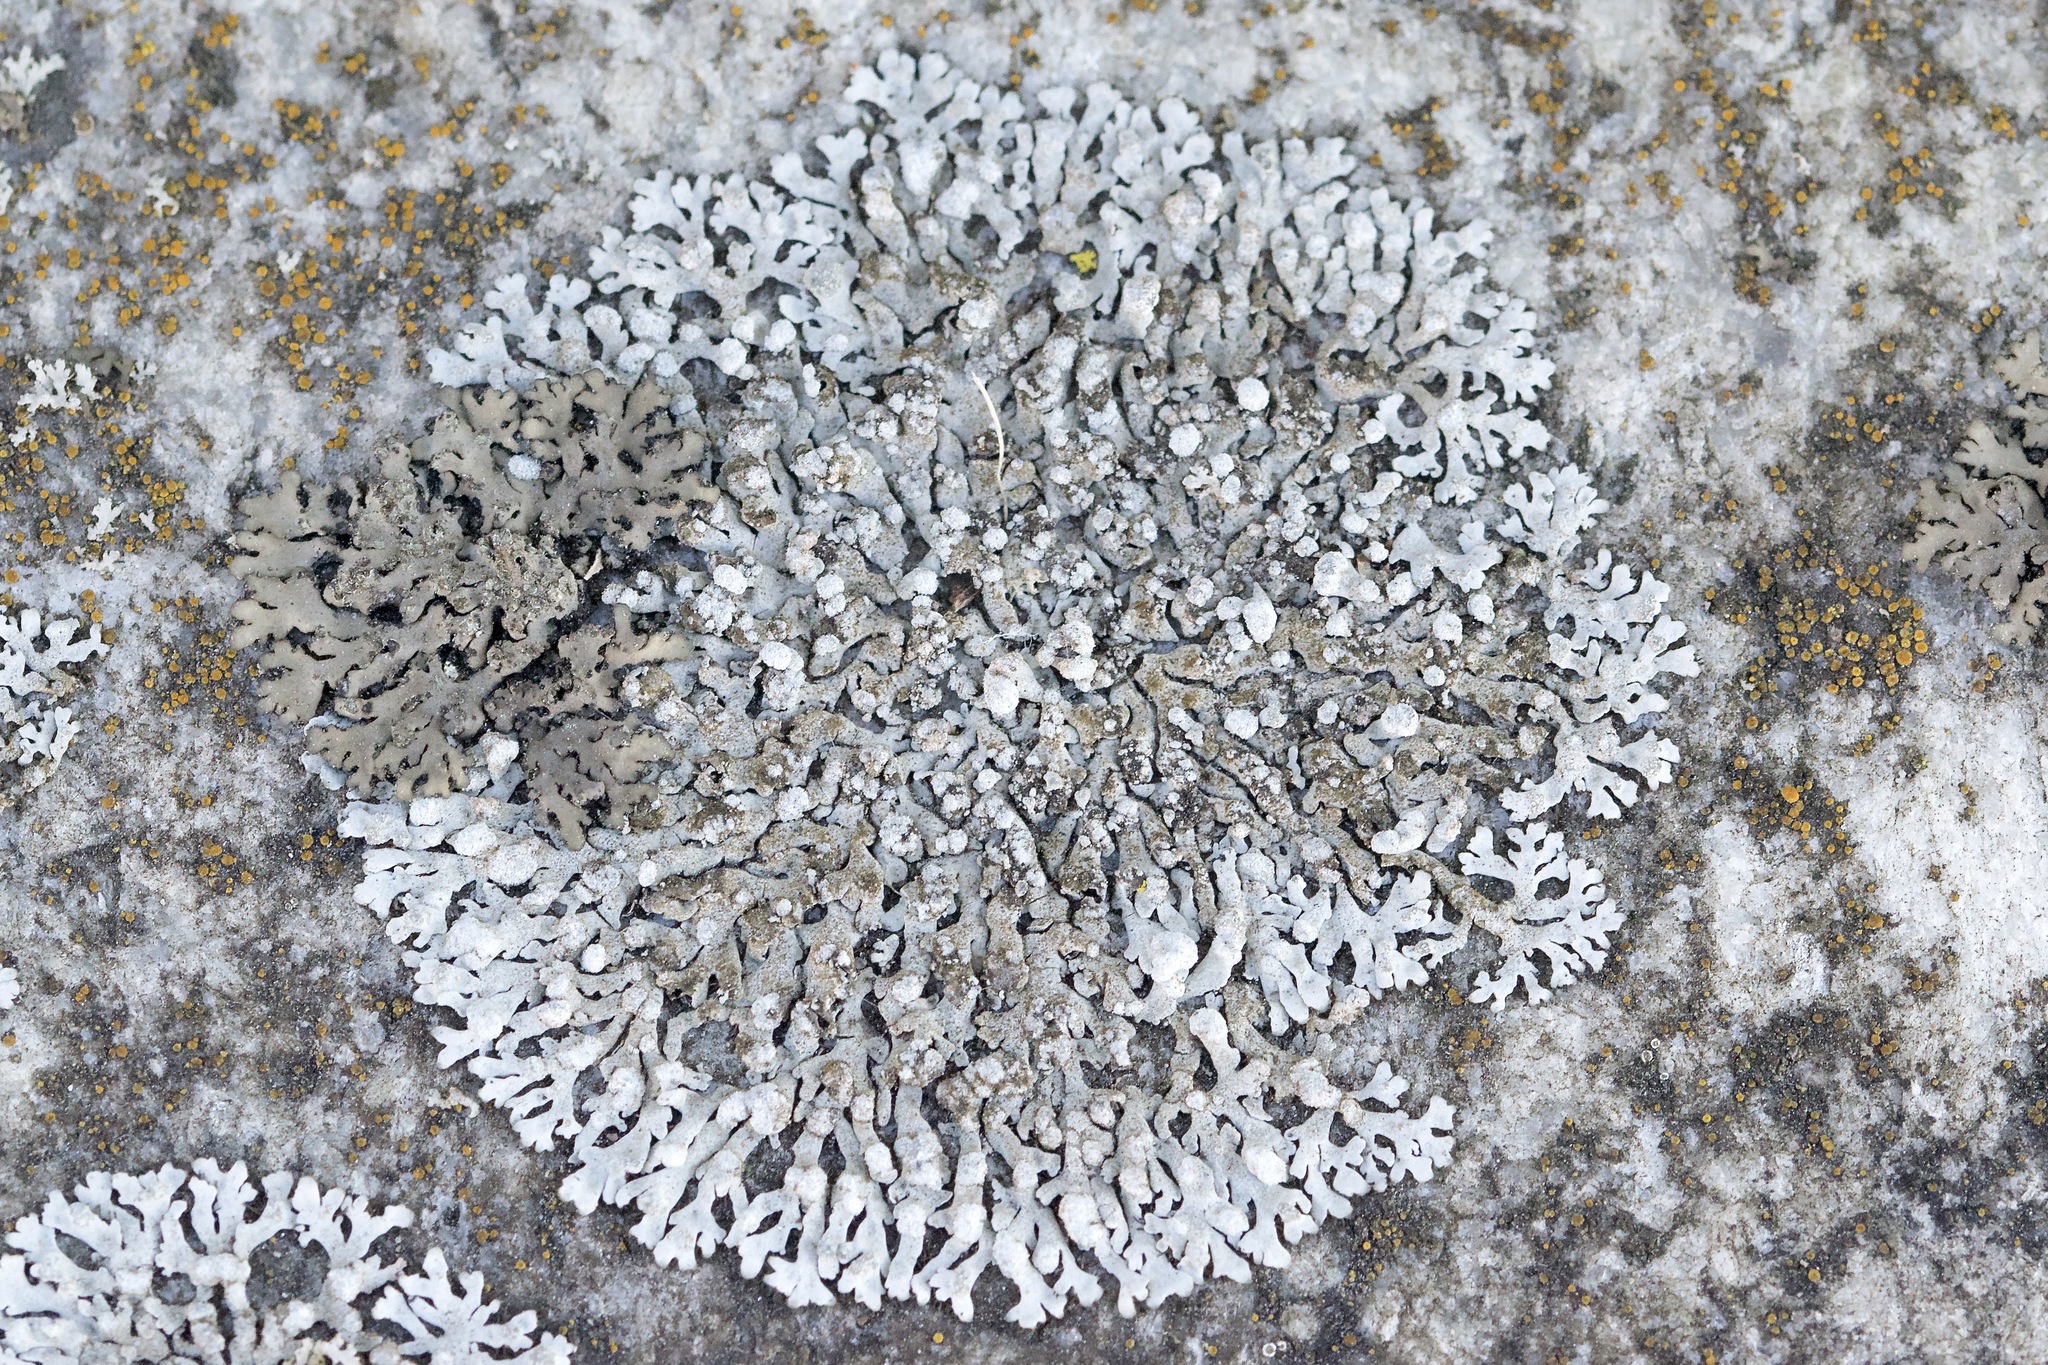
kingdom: Fungi
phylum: Ascomycota
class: Lecanoromycetes
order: Caliciales
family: Physciaceae
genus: Physcia
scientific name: Physcia caesia
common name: Blue-gray rosette lichen
